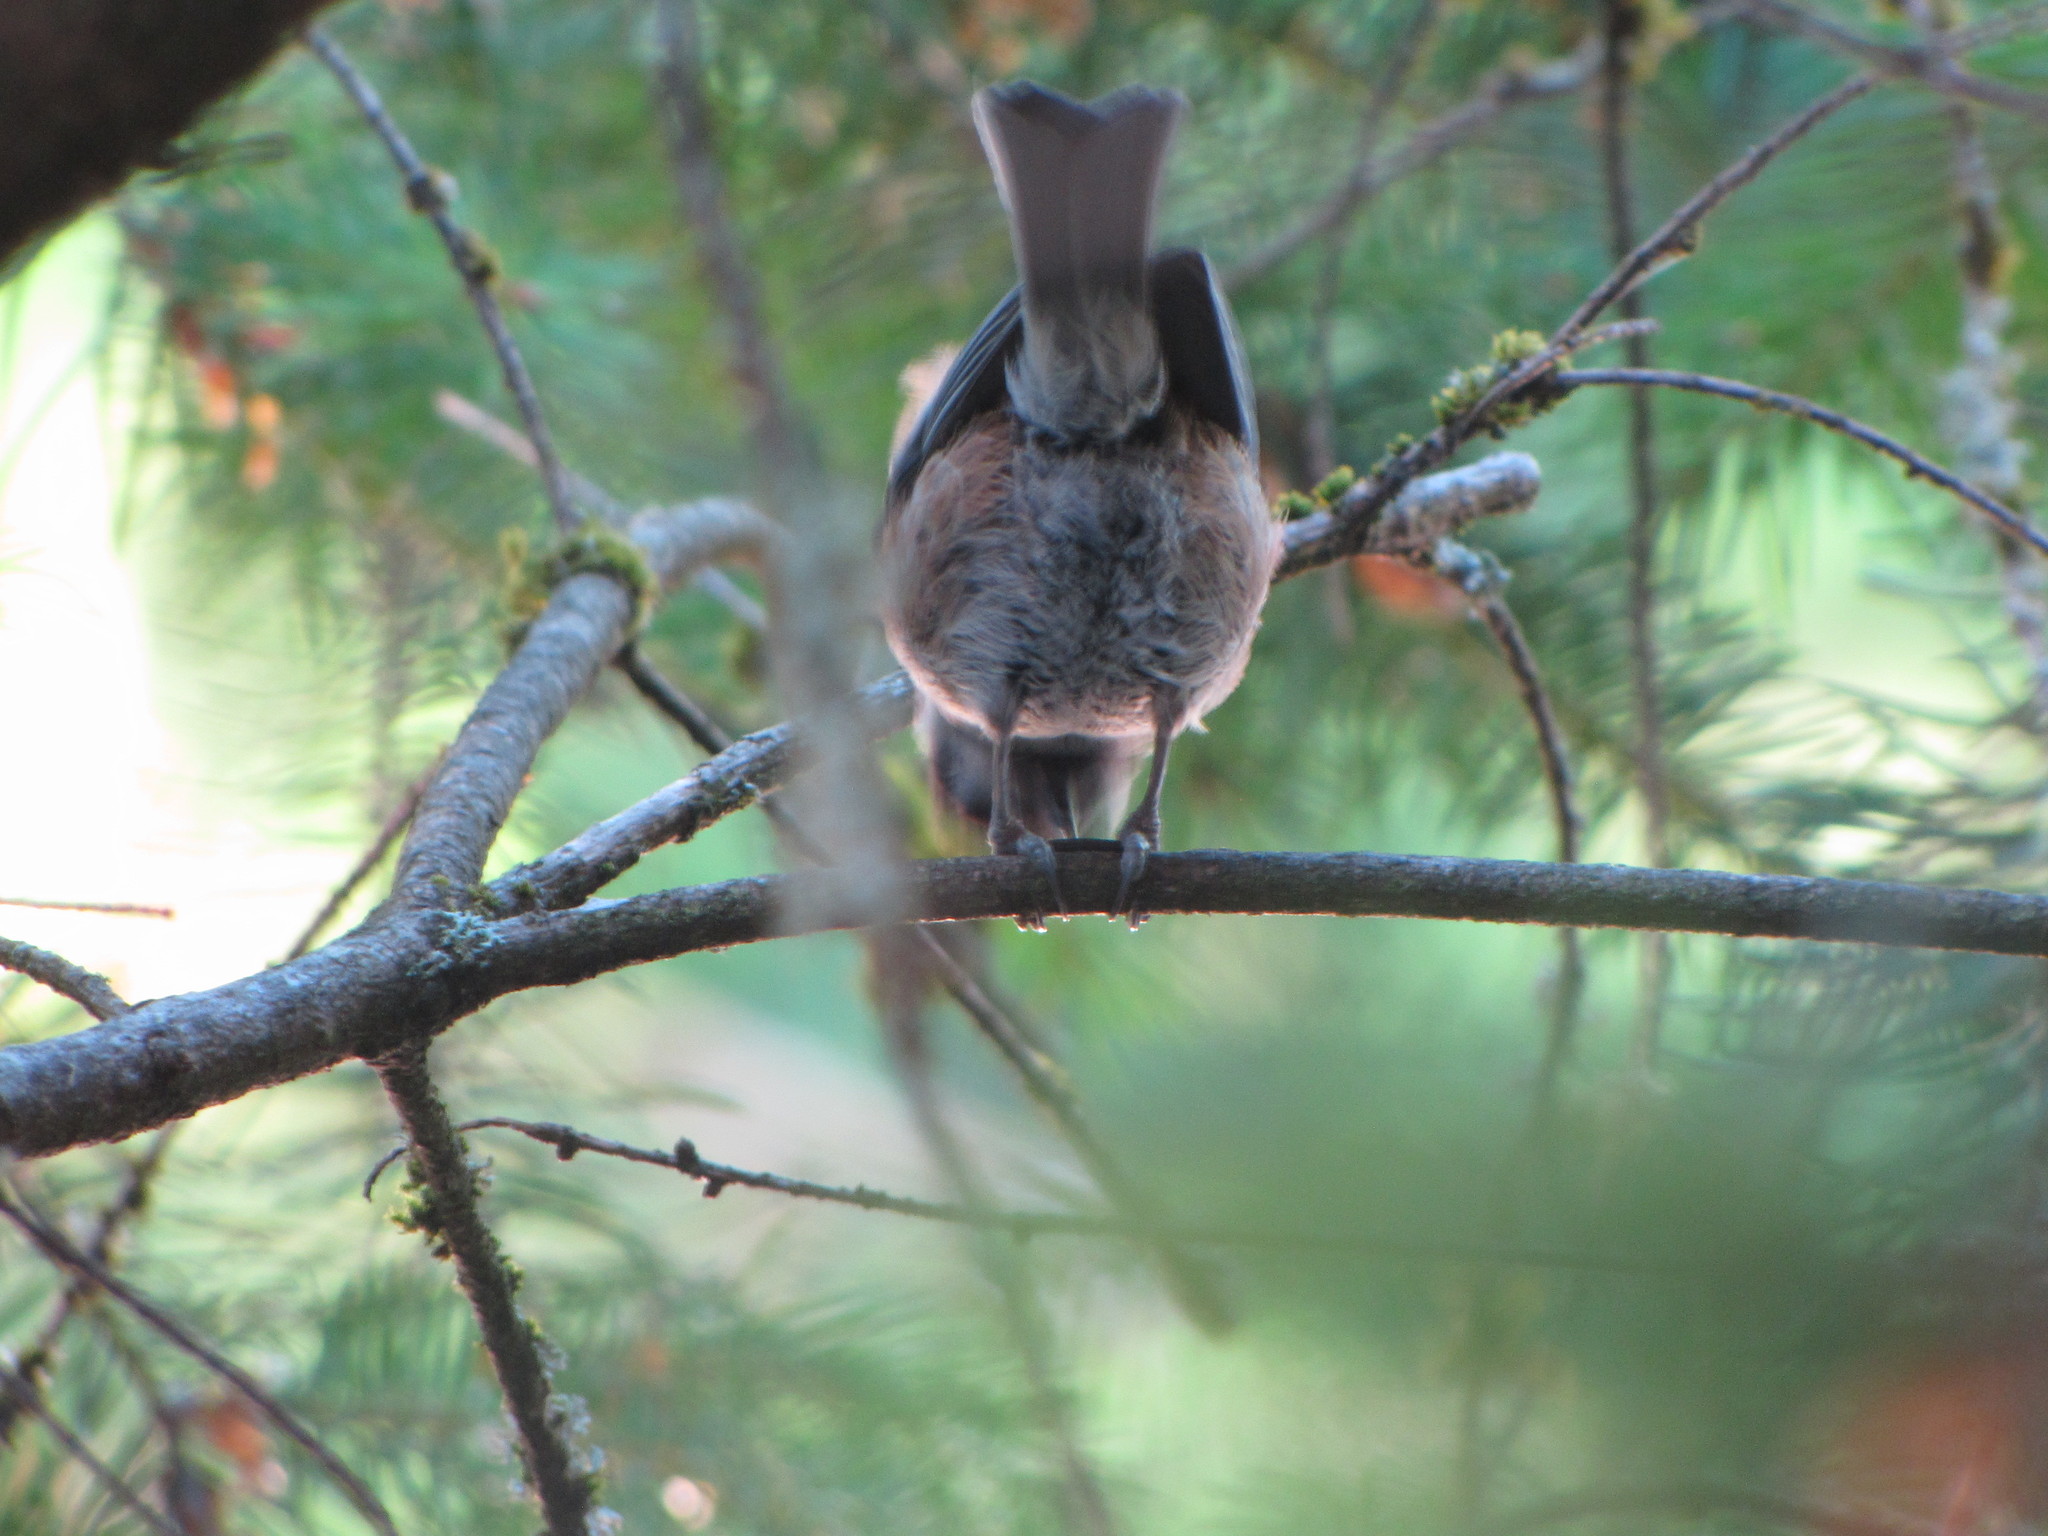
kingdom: Animalia
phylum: Chordata
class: Aves
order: Passeriformes
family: Paridae
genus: Poecile
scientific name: Poecile rufescens
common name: Chestnut-backed chickadee
